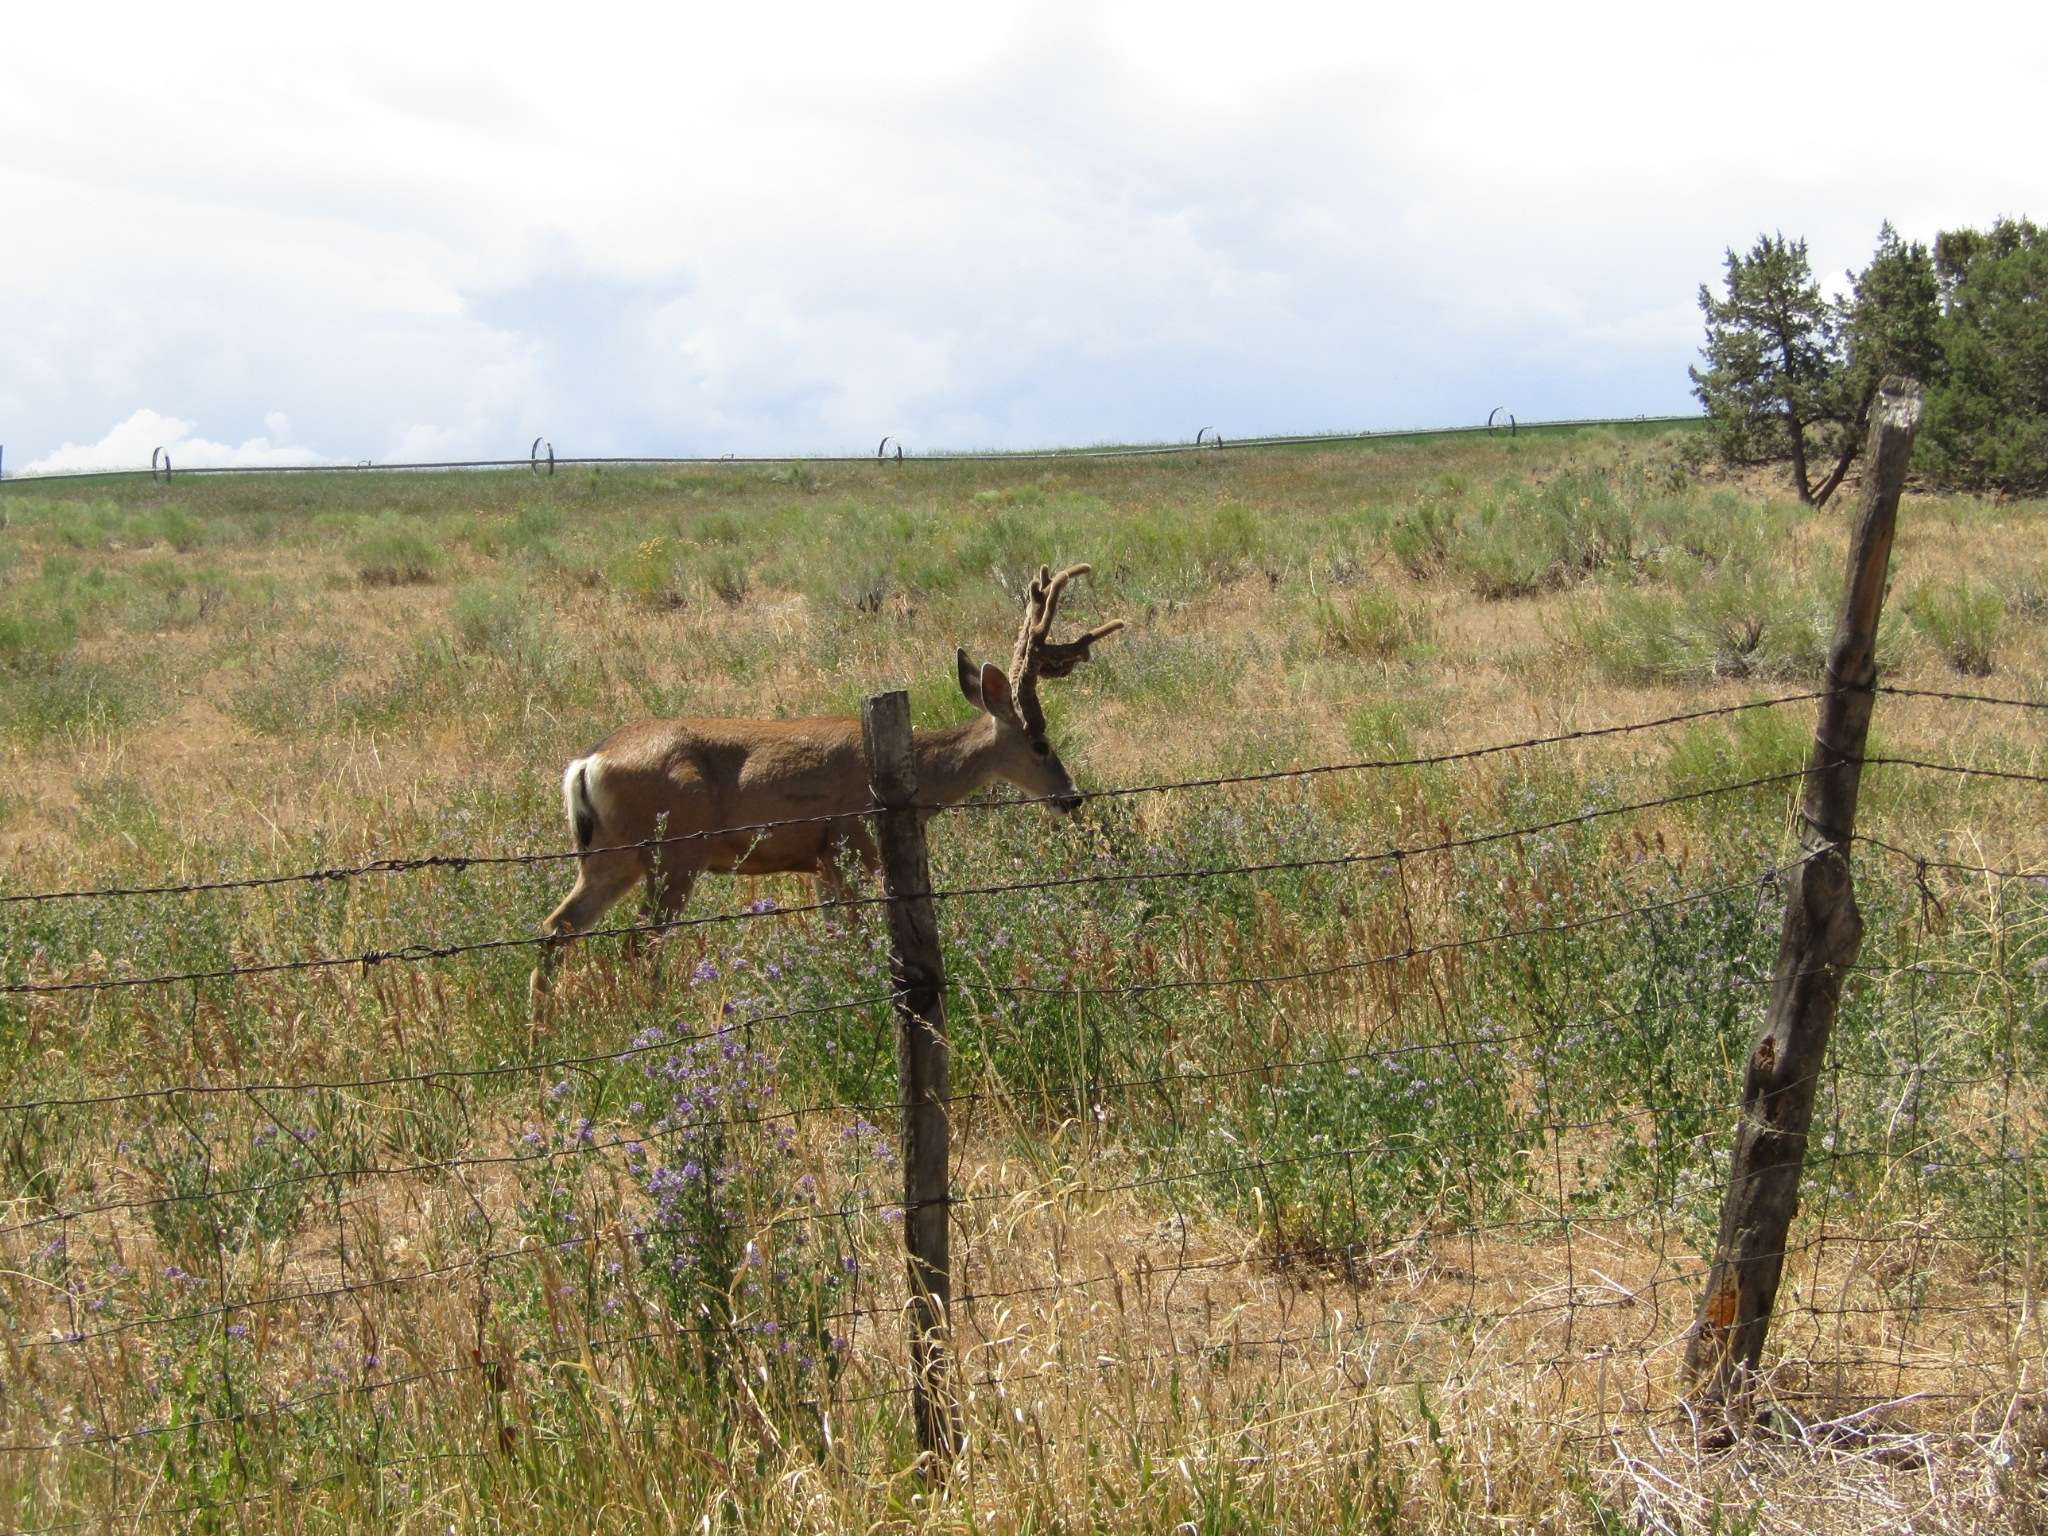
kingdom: Animalia
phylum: Chordata
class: Mammalia
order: Artiodactyla
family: Cervidae
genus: Odocoileus
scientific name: Odocoileus hemionus
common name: Mule deer
